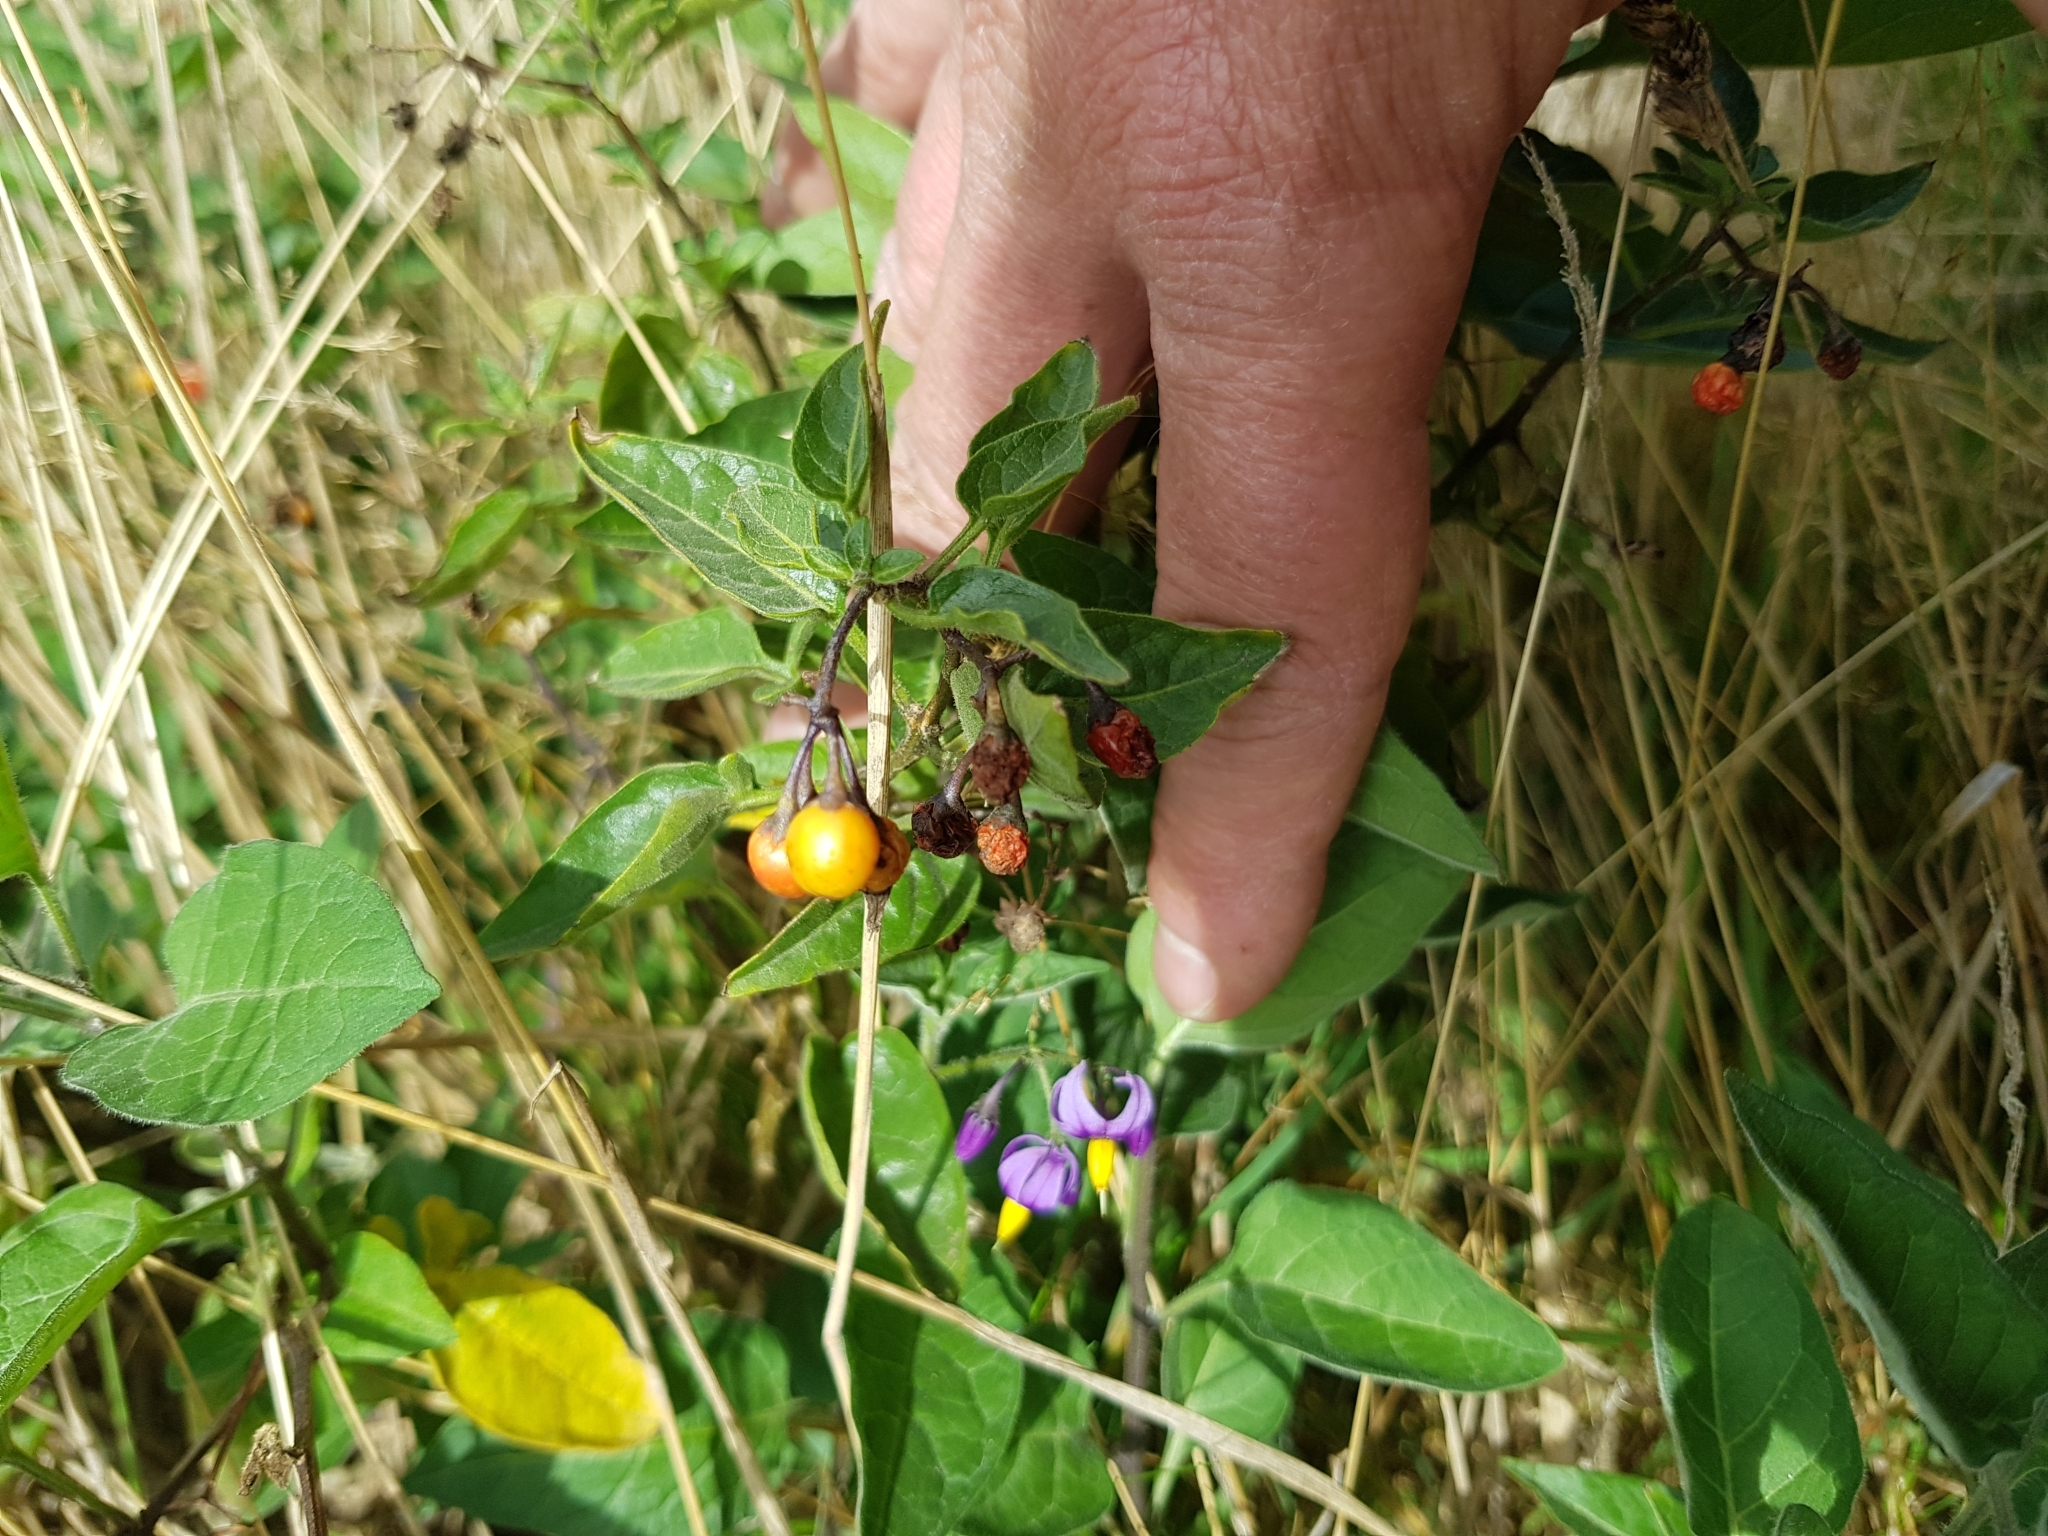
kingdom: Plantae
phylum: Tracheophyta
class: Magnoliopsida
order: Solanales
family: Solanaceae
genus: Solanum
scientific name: Solanum dulcamara
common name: Climbing nightshade
